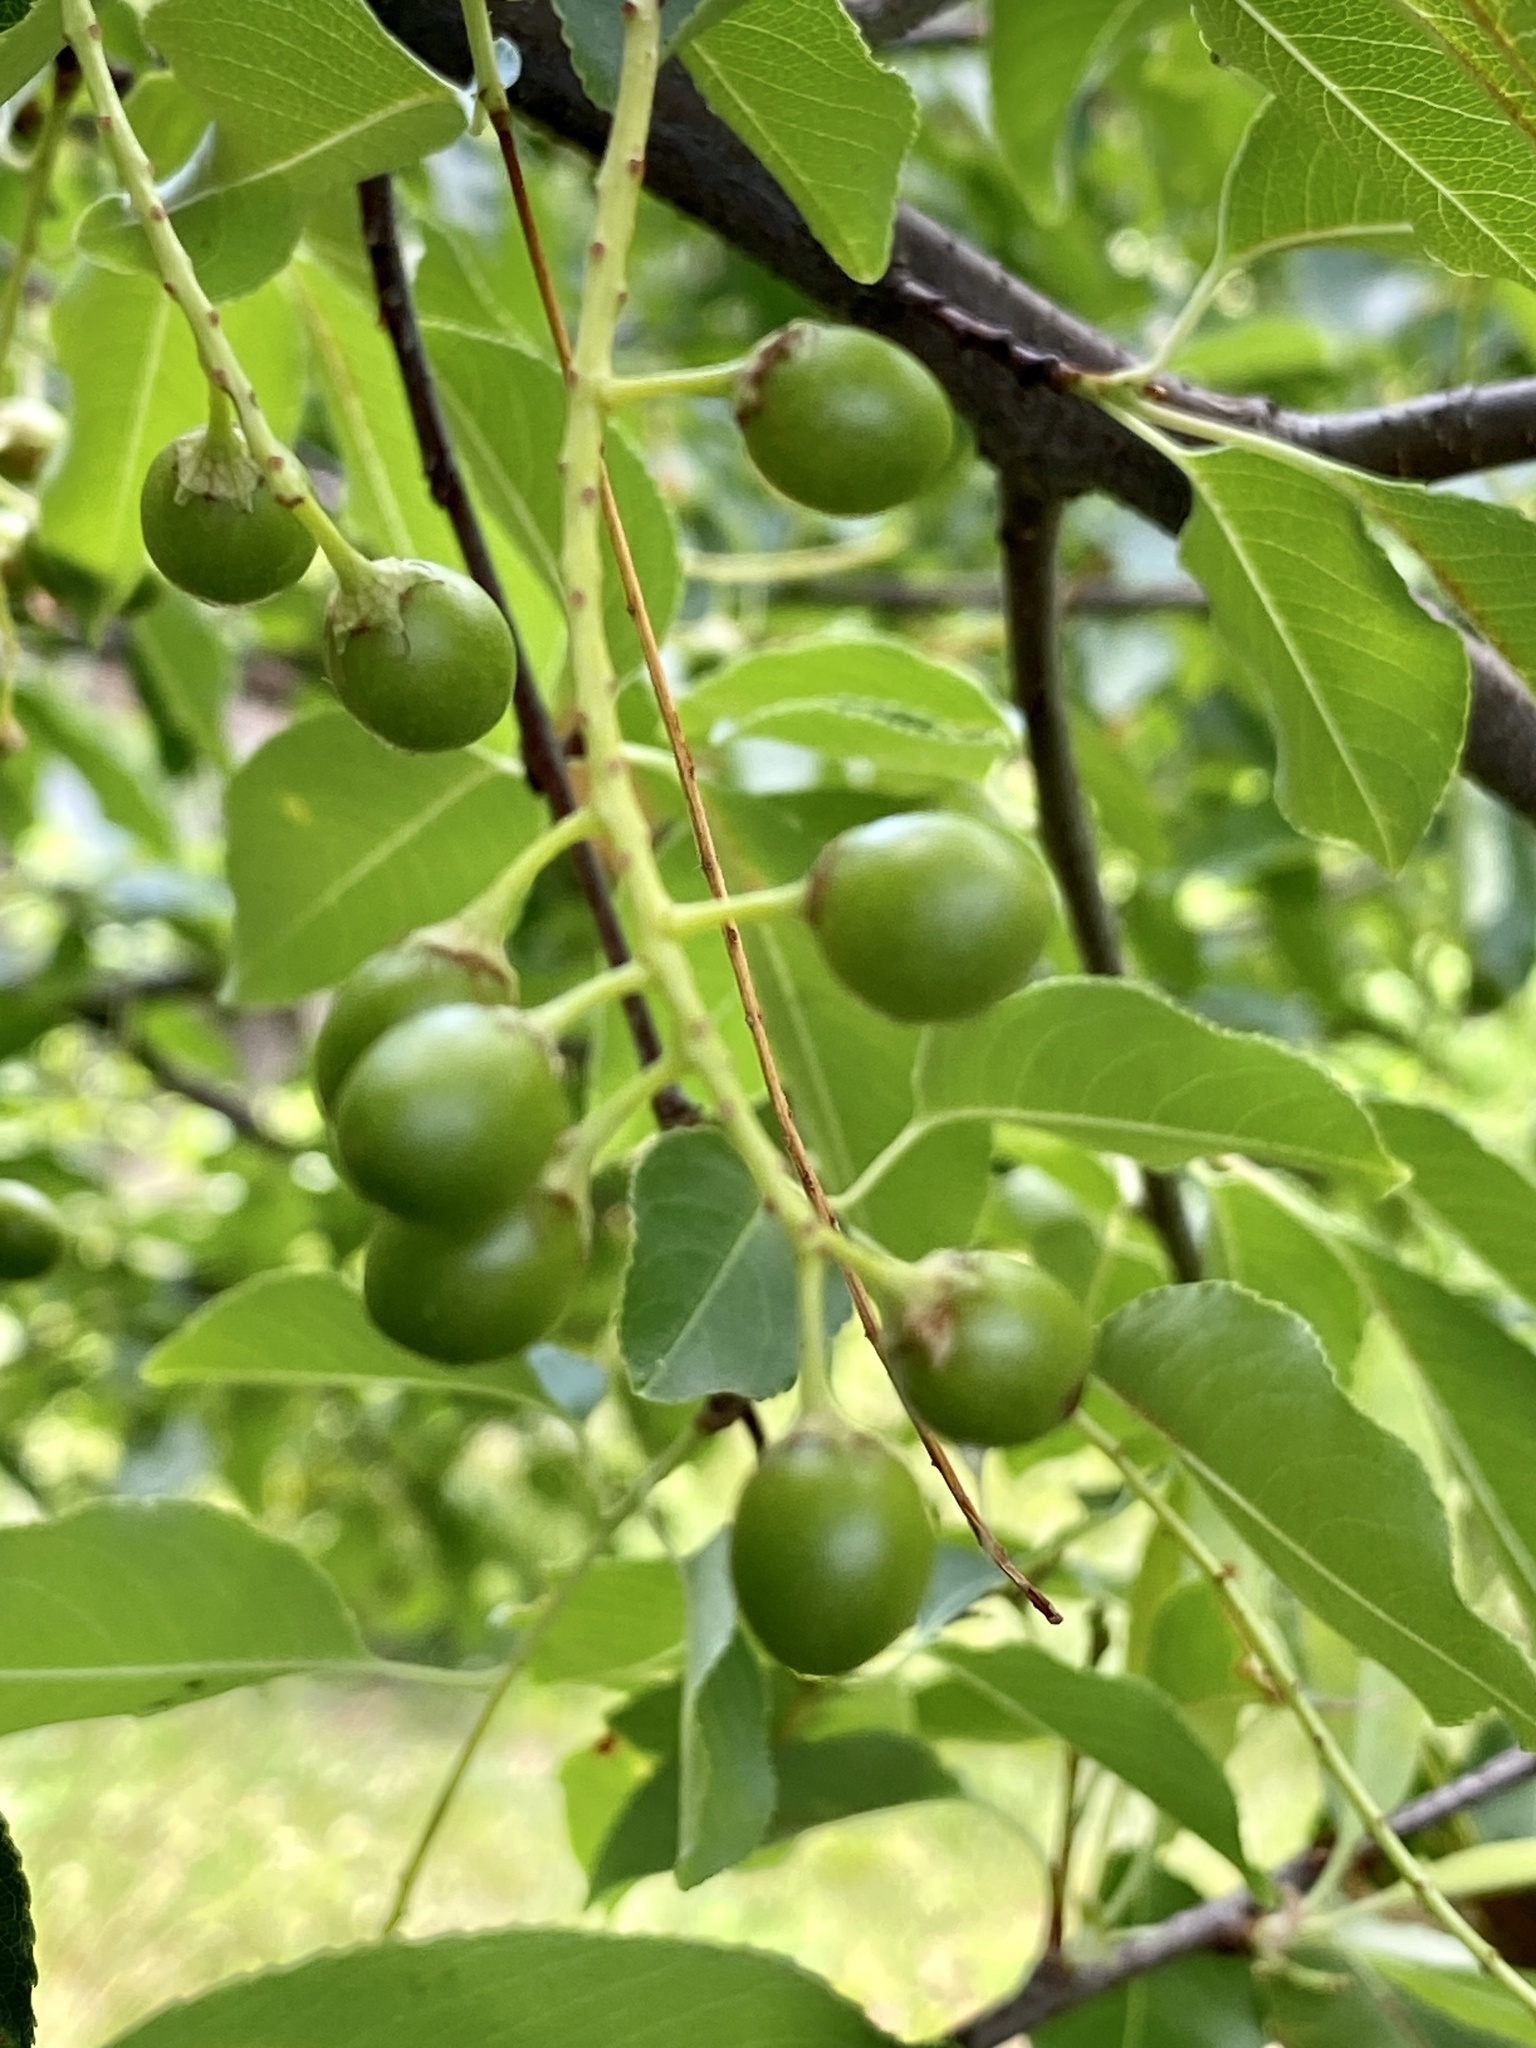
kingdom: Plantae
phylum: Tracheophyta
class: Magnoliopsida
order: Rosales
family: Rosaceae
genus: Prunus
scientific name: Prunus serotina
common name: Black cherry
